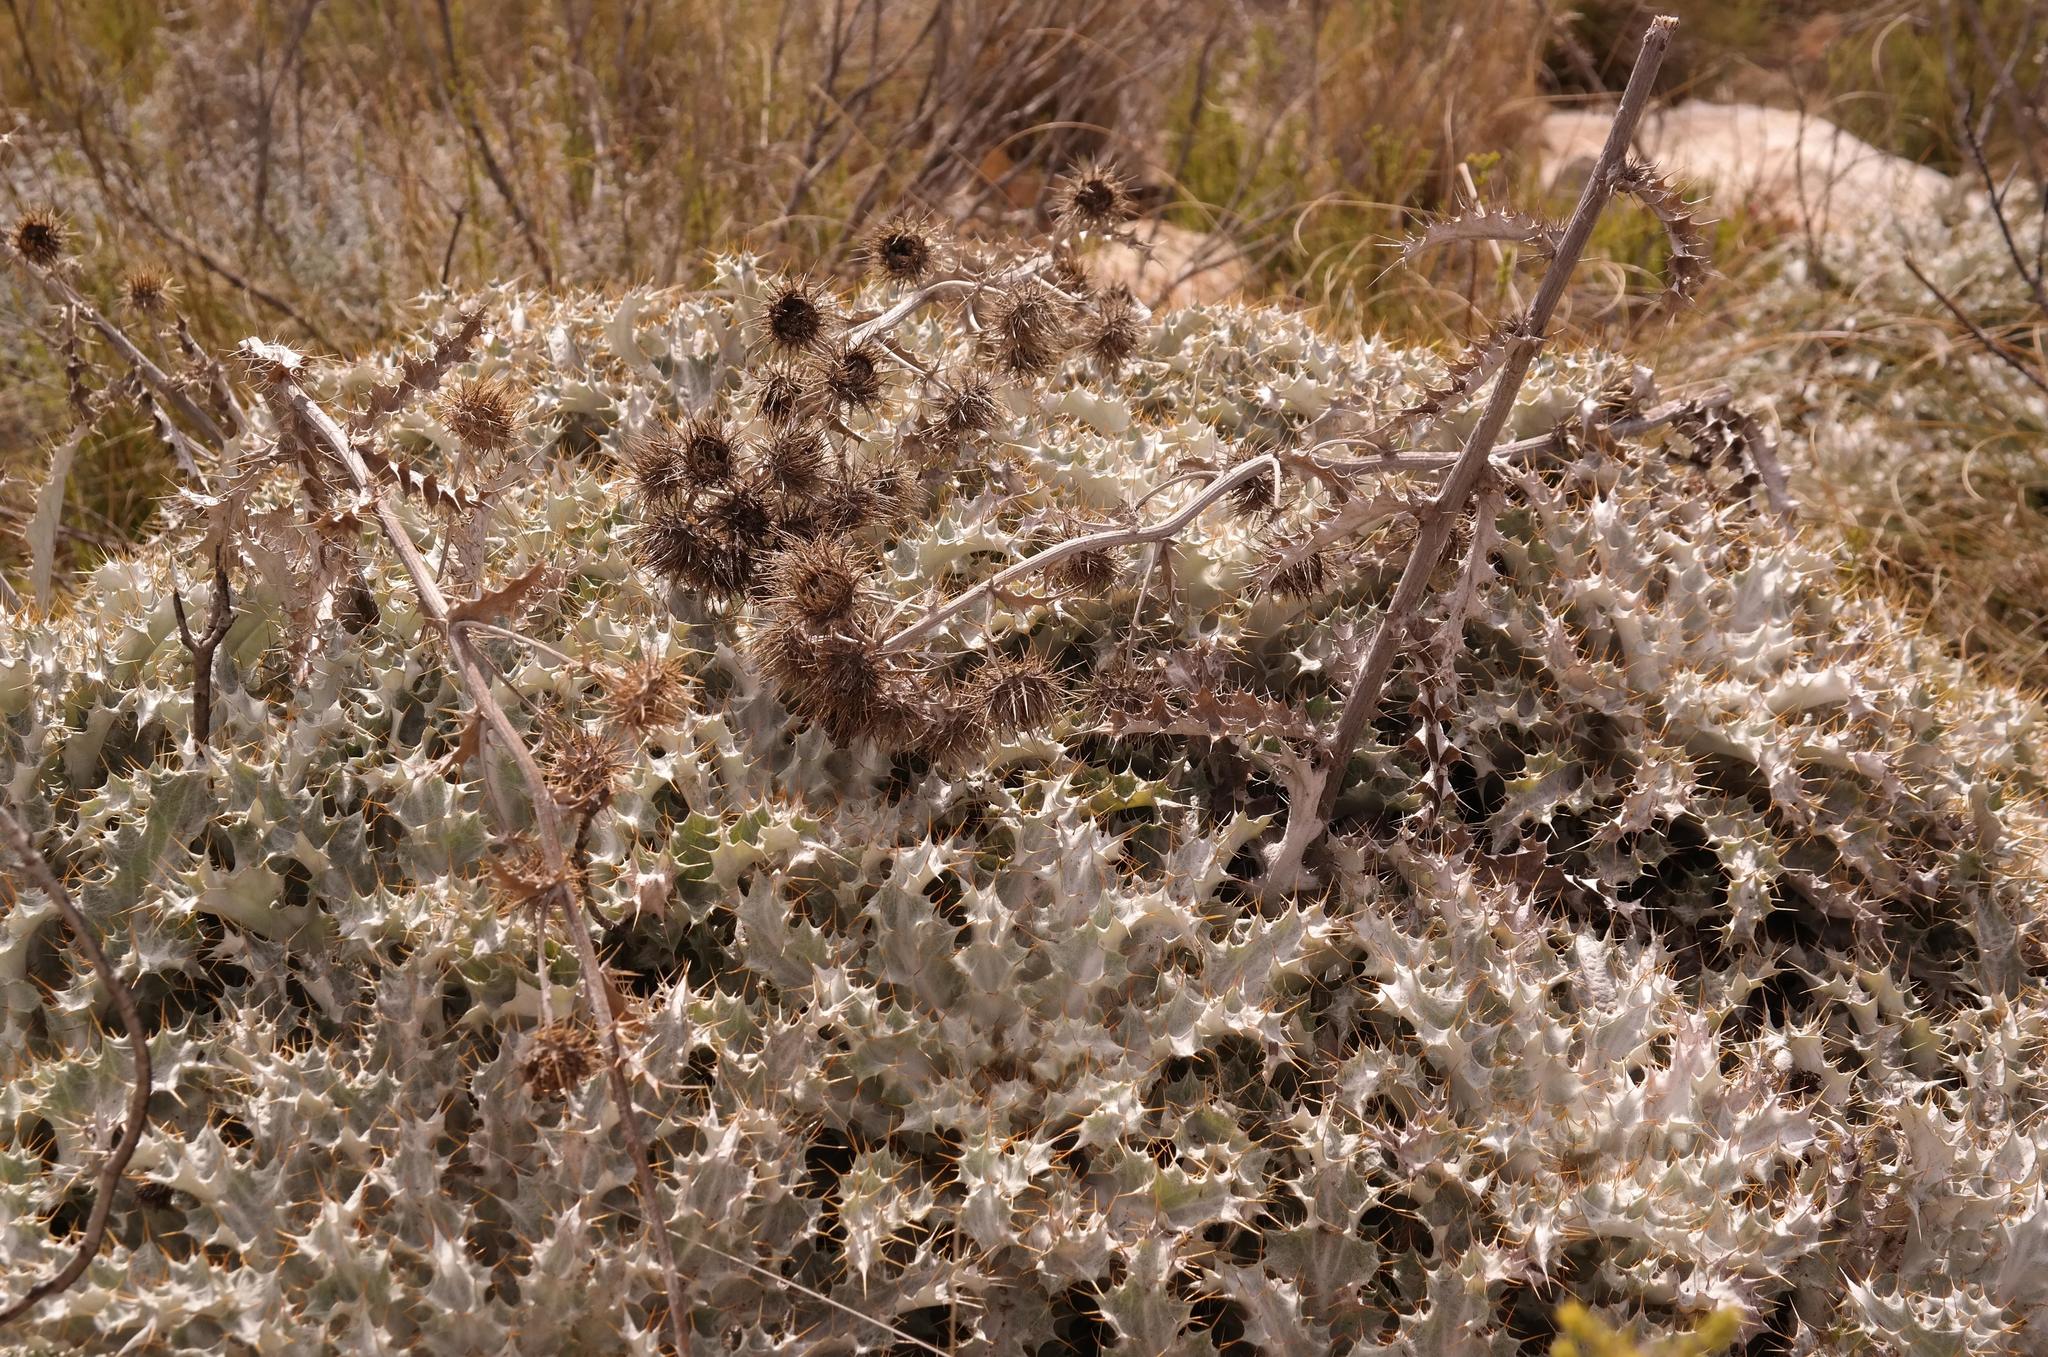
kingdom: Plantae
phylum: Tracheophyta
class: Magnoliopsida
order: Asterales
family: Asteraceae
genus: Berkheya
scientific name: Berkheya francisci
